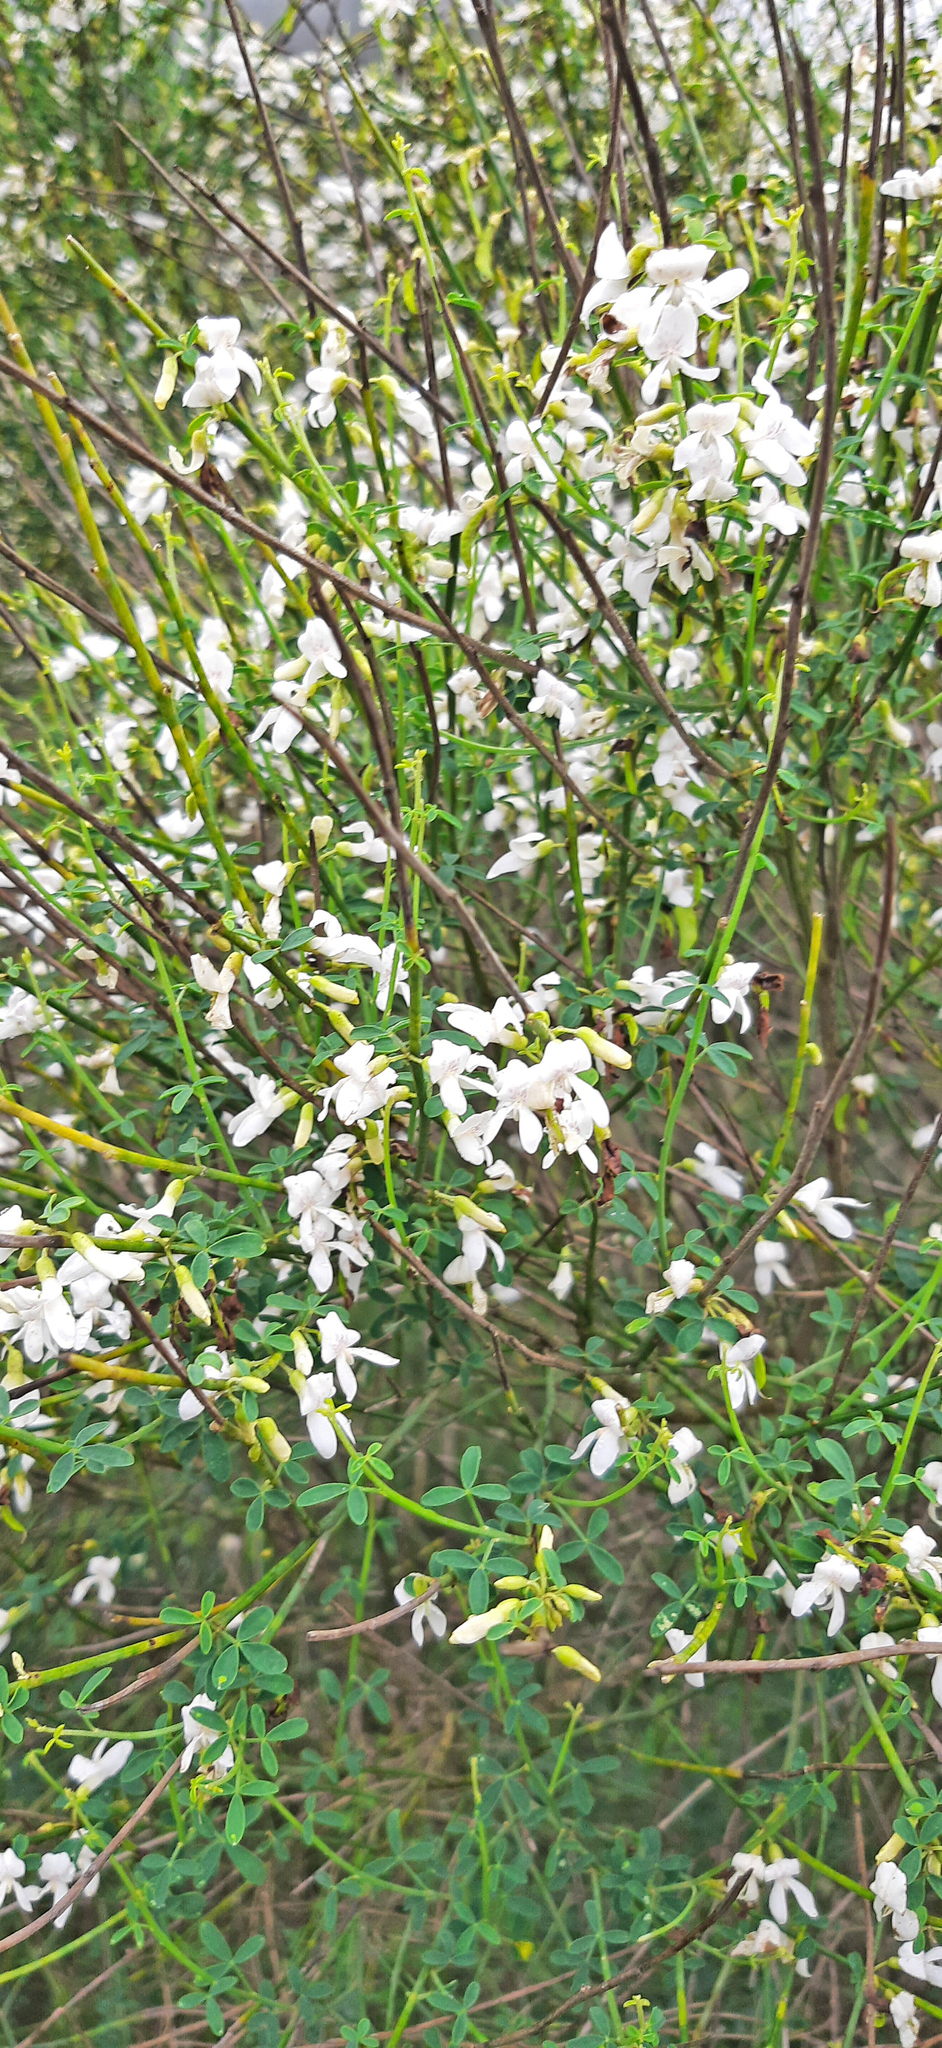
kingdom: Plantae
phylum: Tracheophyta
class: Magnoliopsida
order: Fabales
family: Fabaceae
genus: Cytisus
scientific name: Cytisus filipes
